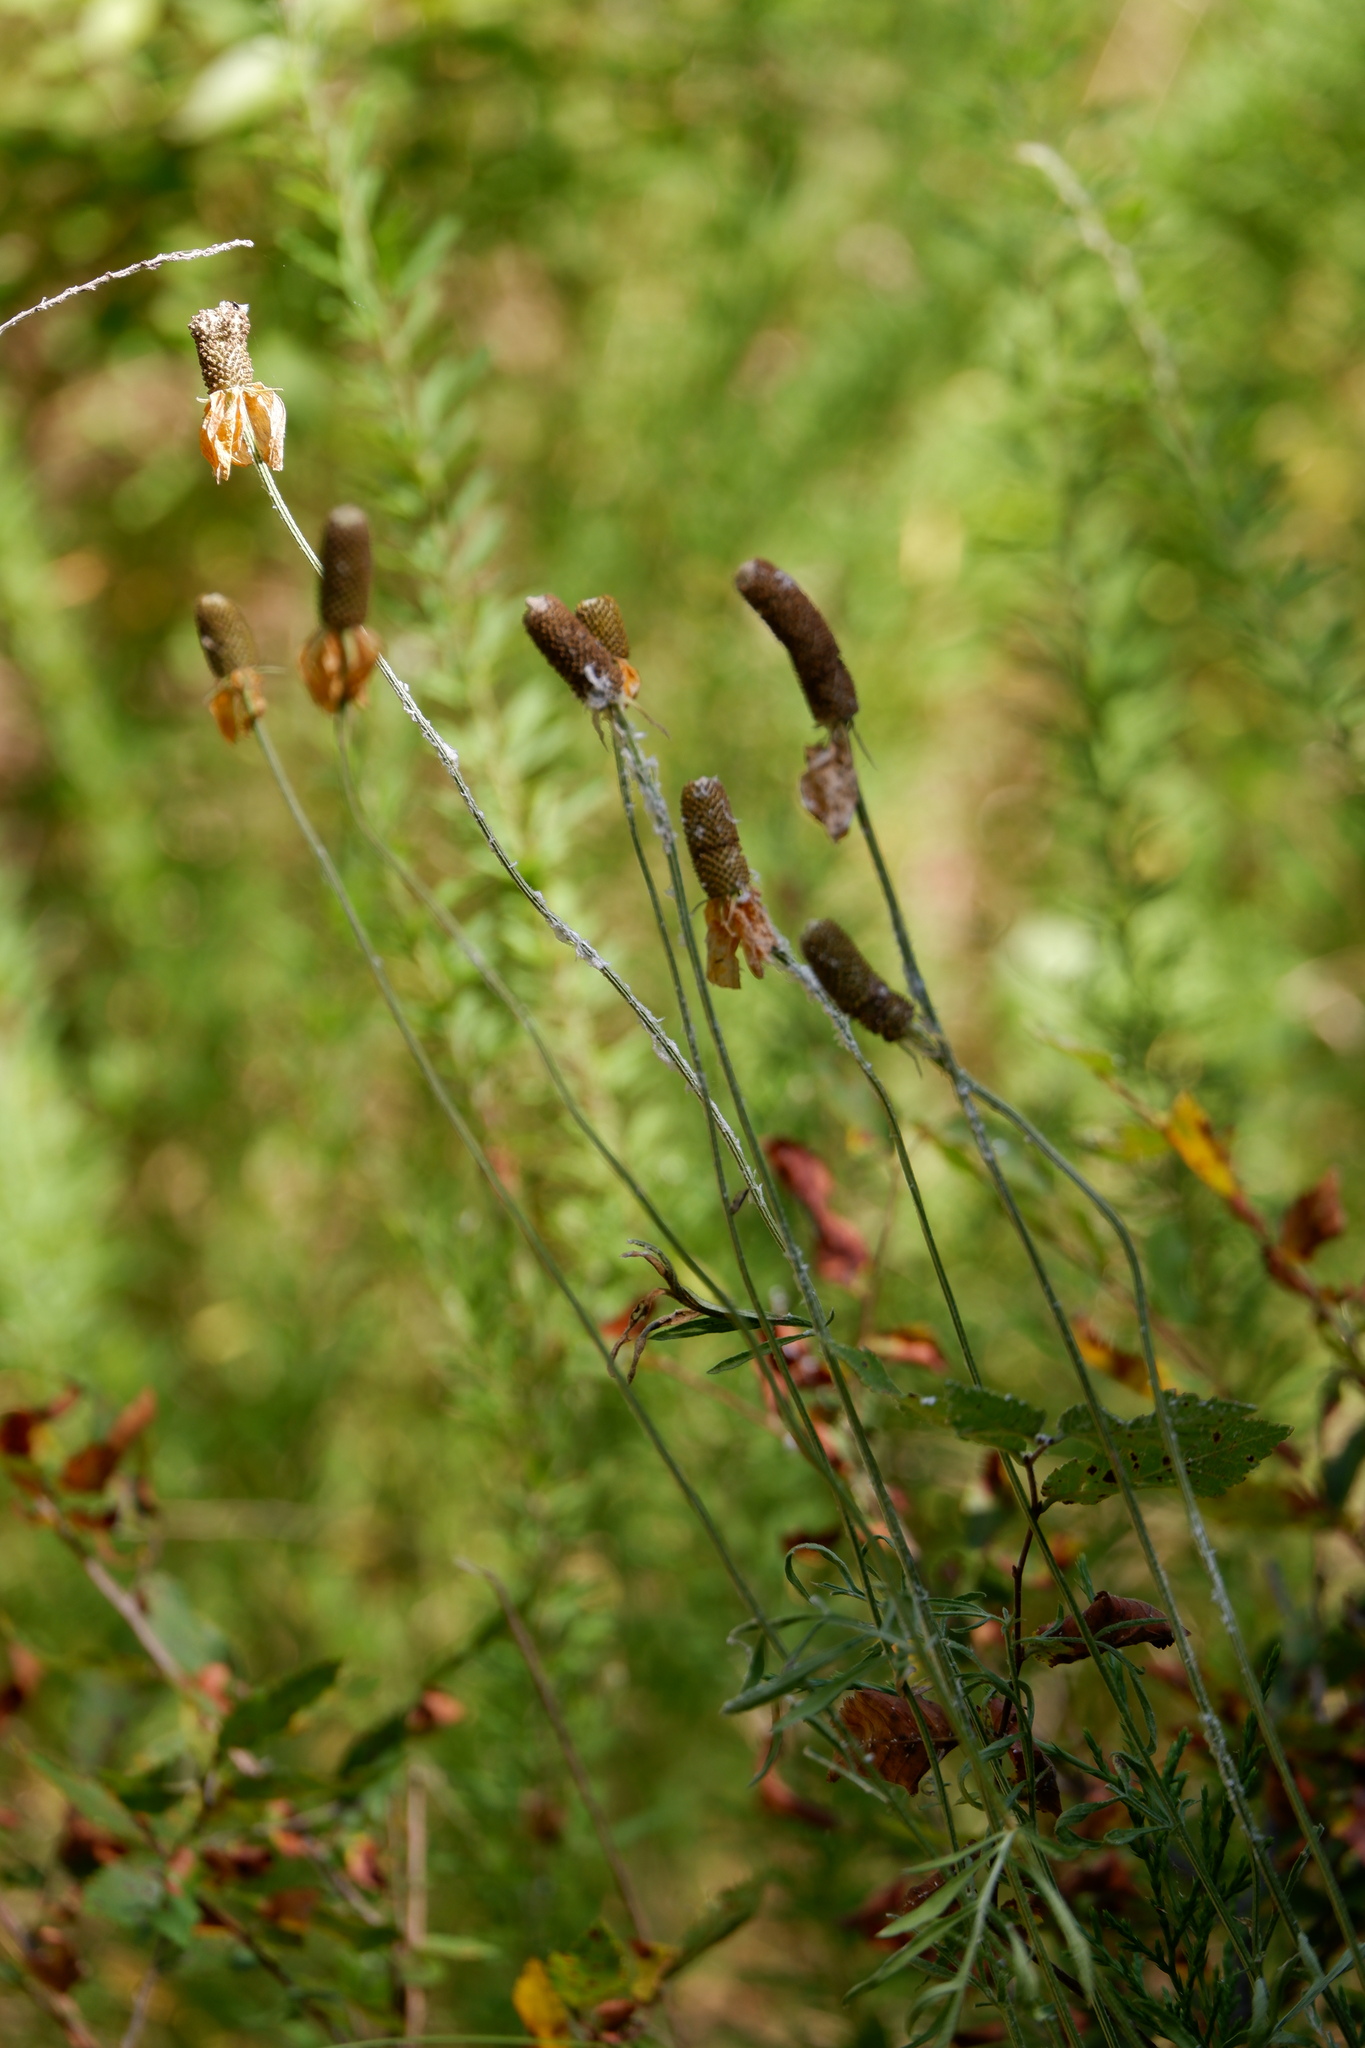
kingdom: Plantae
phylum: Tracheophyta
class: Magnoliopsida
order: Asterales
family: Asteraceae
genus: Ratibida
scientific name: Ratibida columnifera
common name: Prairie coneflower
